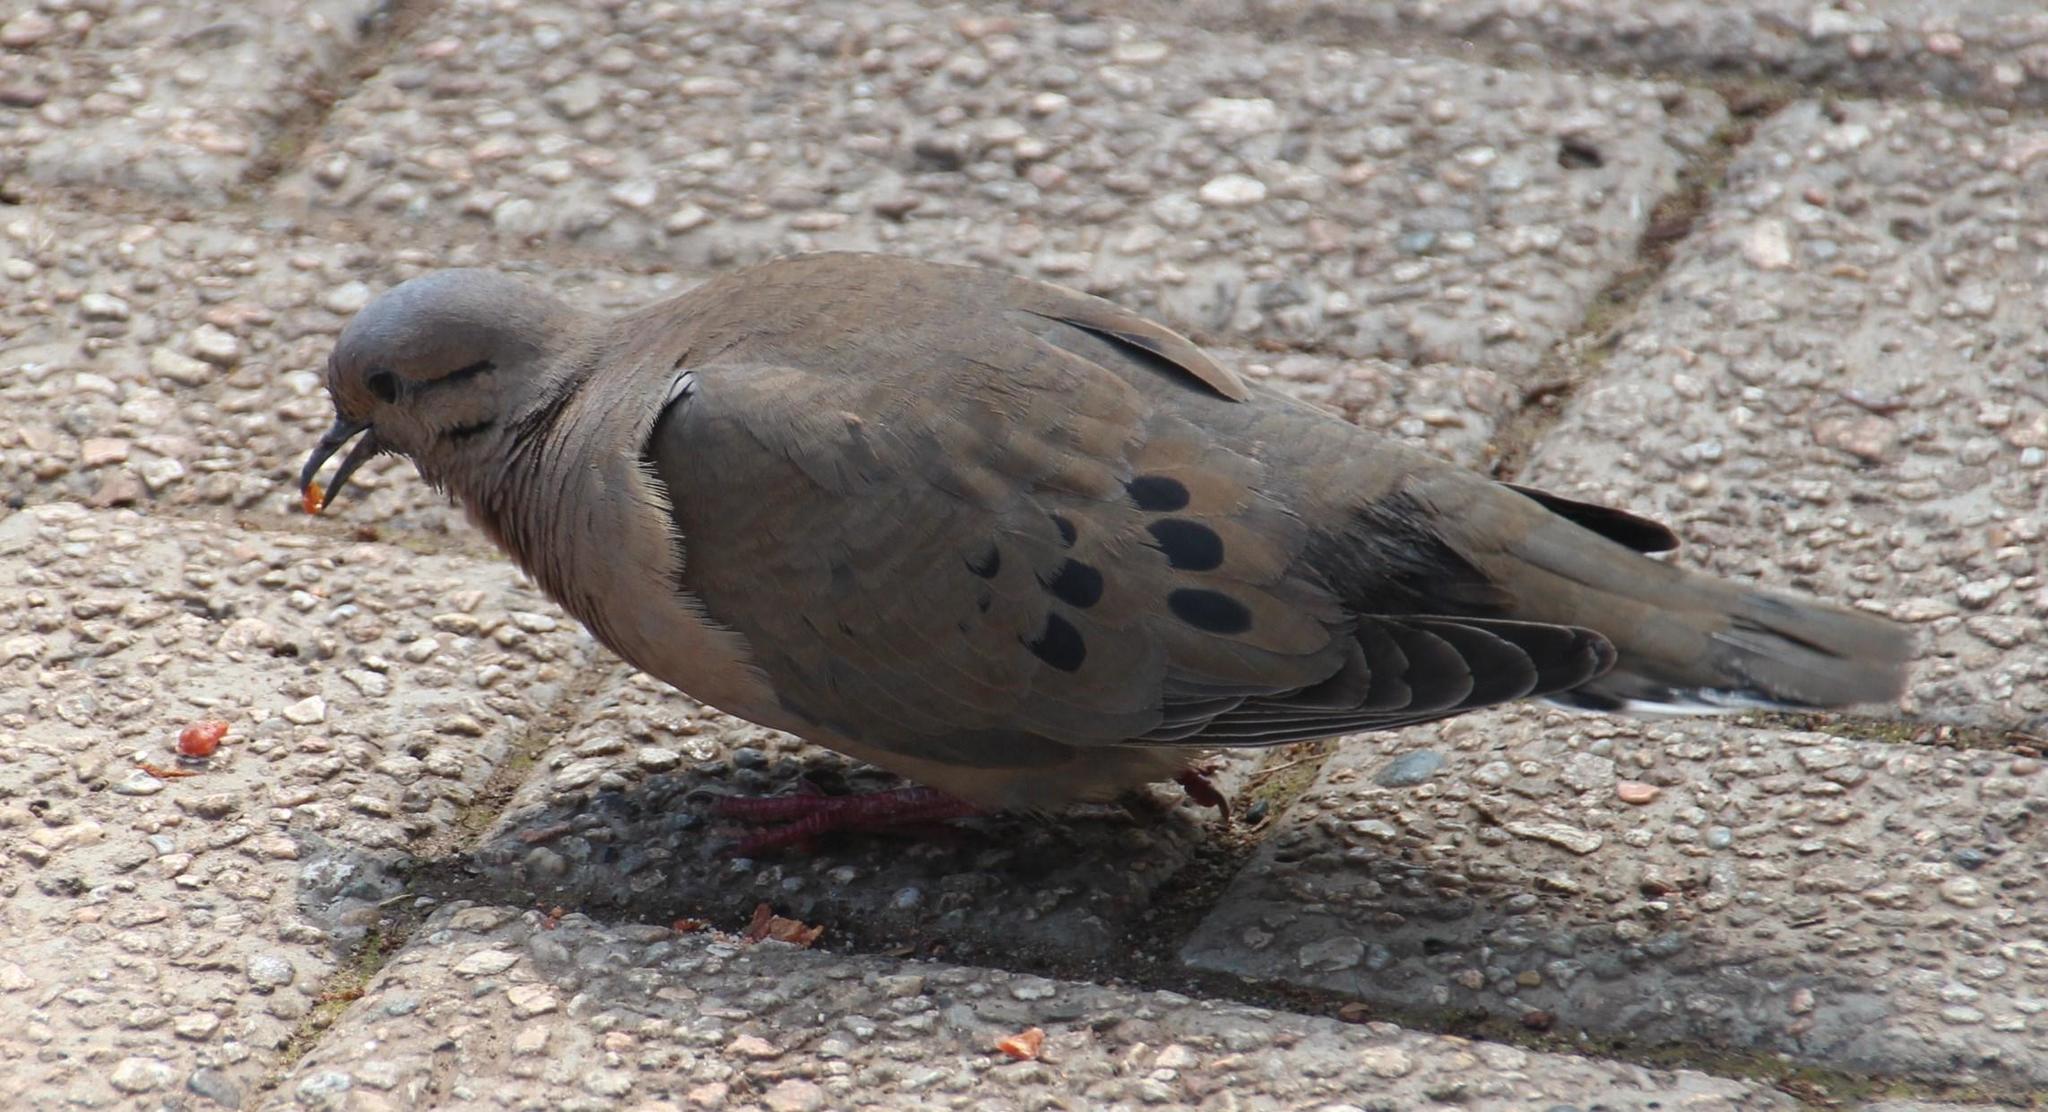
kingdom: Animalia
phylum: Chordata
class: Aves
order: Columbiformes
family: Columbidae
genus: Zenaida
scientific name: Zenaida auriculata
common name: Eared dove
